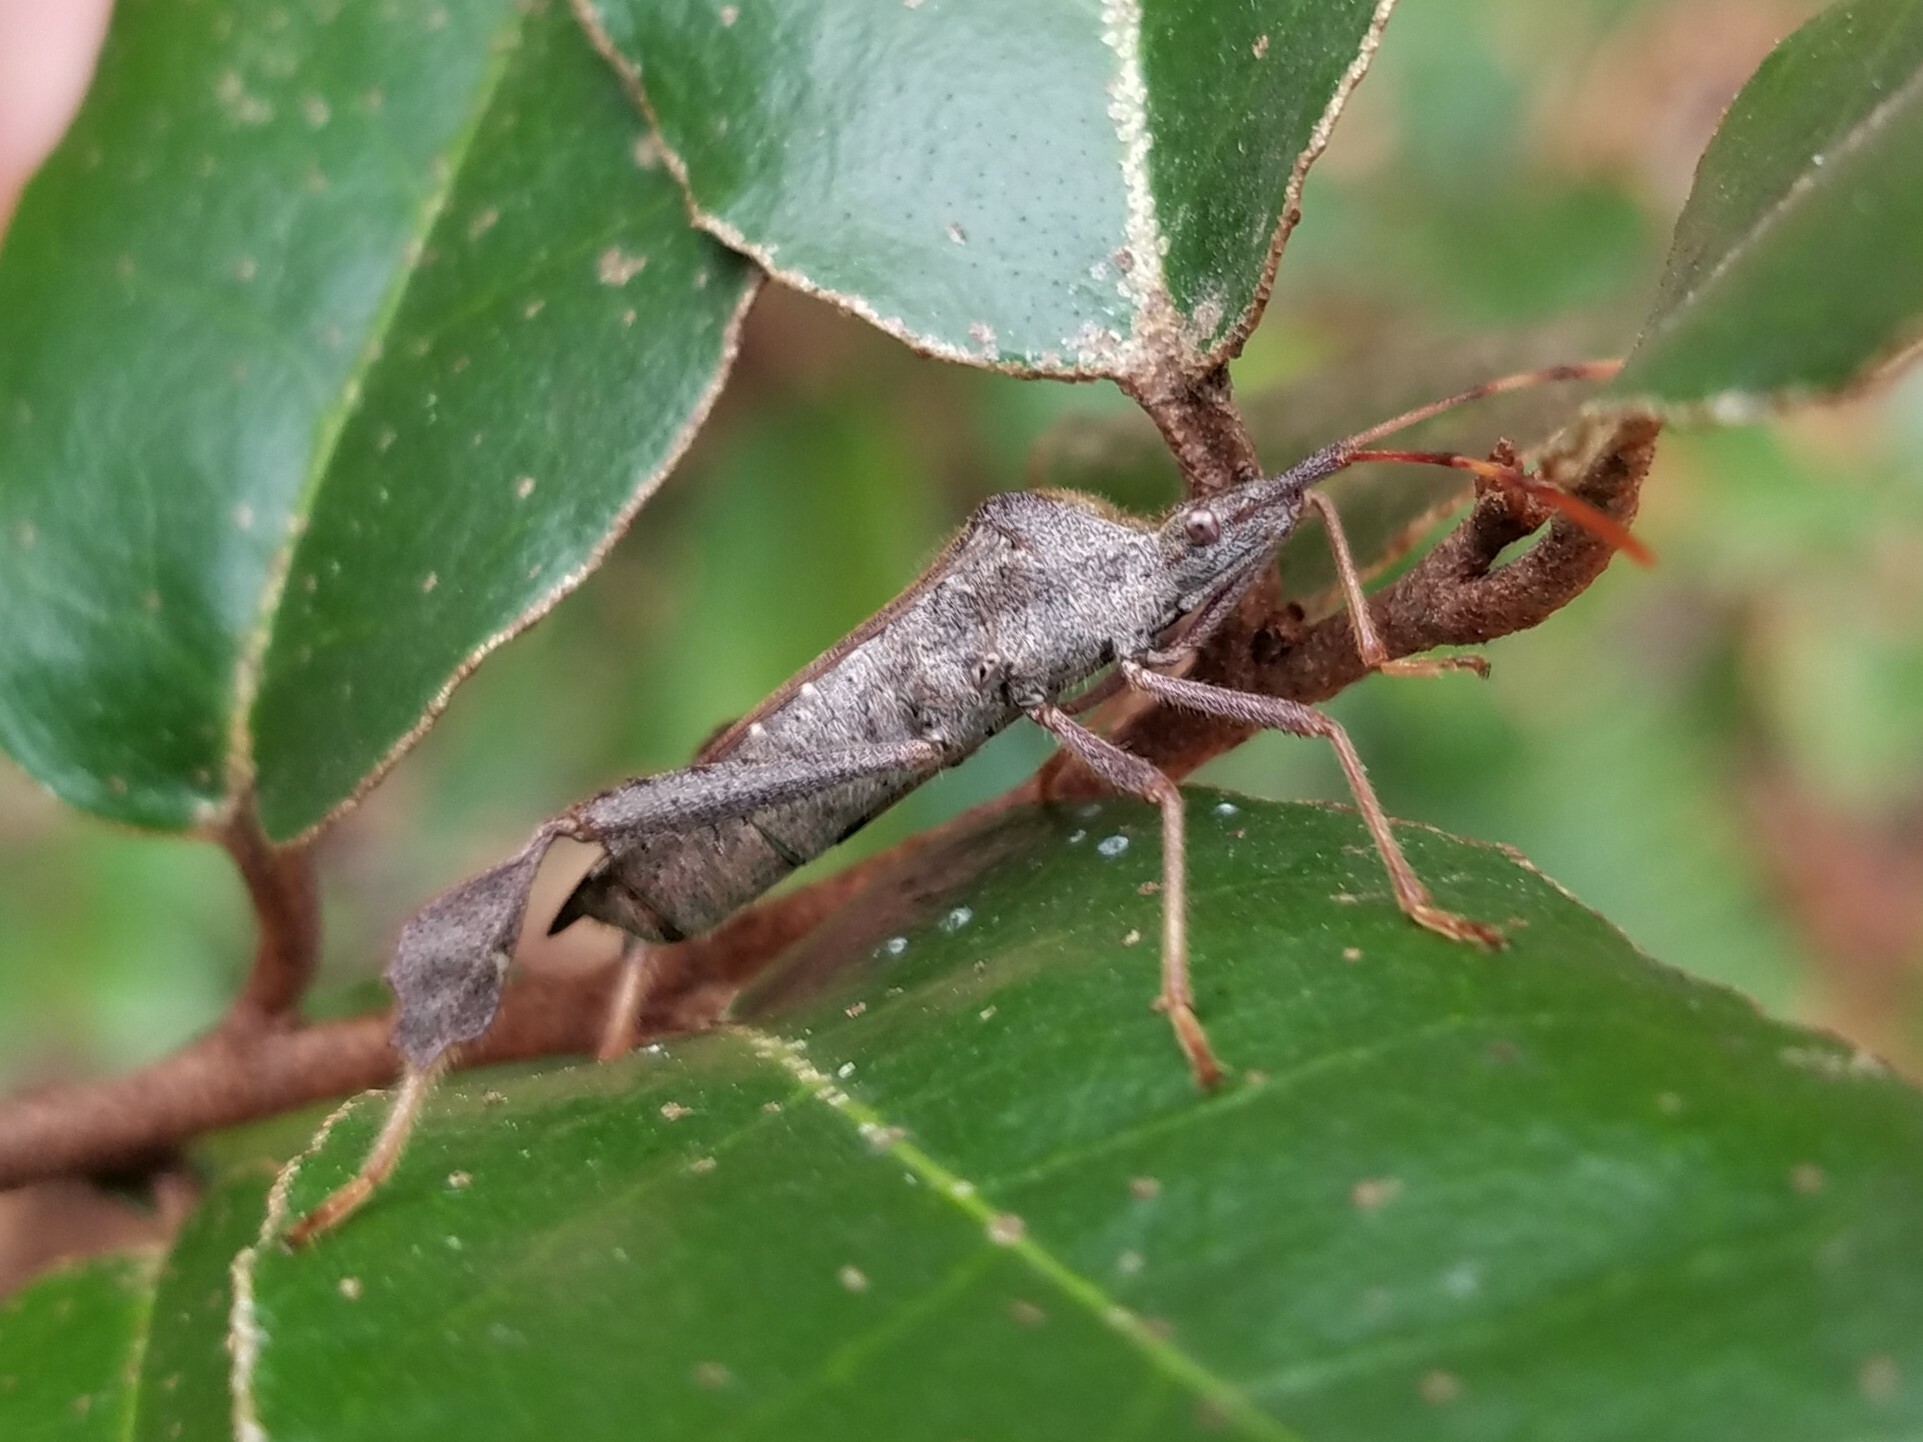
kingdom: Animalia
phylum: Arthropoda
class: Insecta
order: Hemiptera
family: Coreidae
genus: Leptoglossus
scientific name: Leptoglossus oppositus
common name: Northern leaf-footed bug
